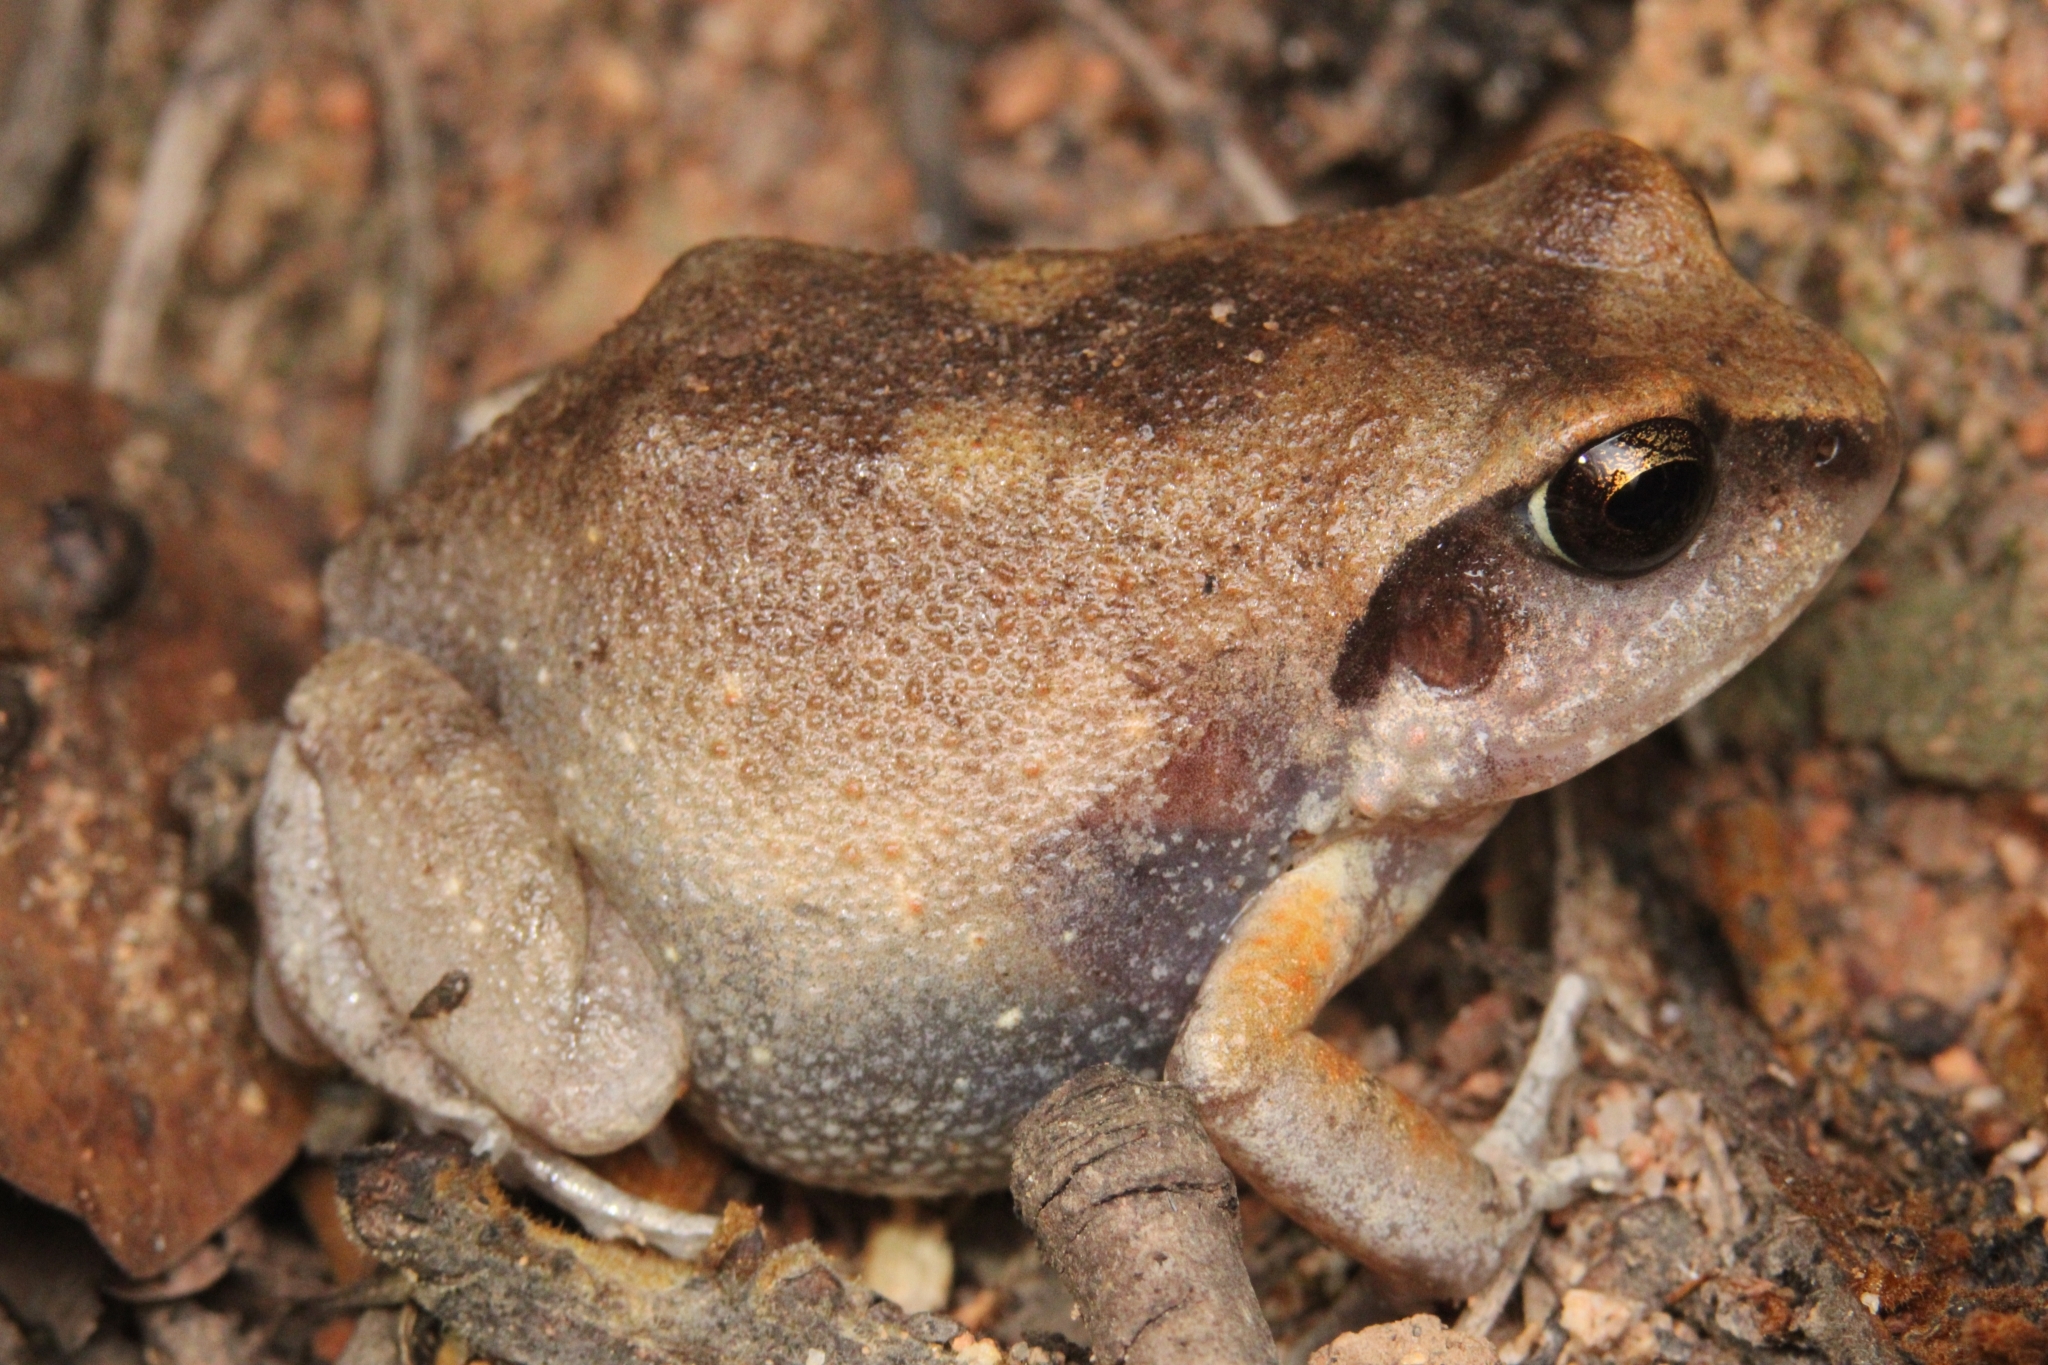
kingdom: Animalia
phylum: Chordata
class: Amphibia
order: Anura
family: Arthroleptidae
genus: Arthroleptis
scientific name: Arthroleptis stenodactylus
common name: Dune squeaker
